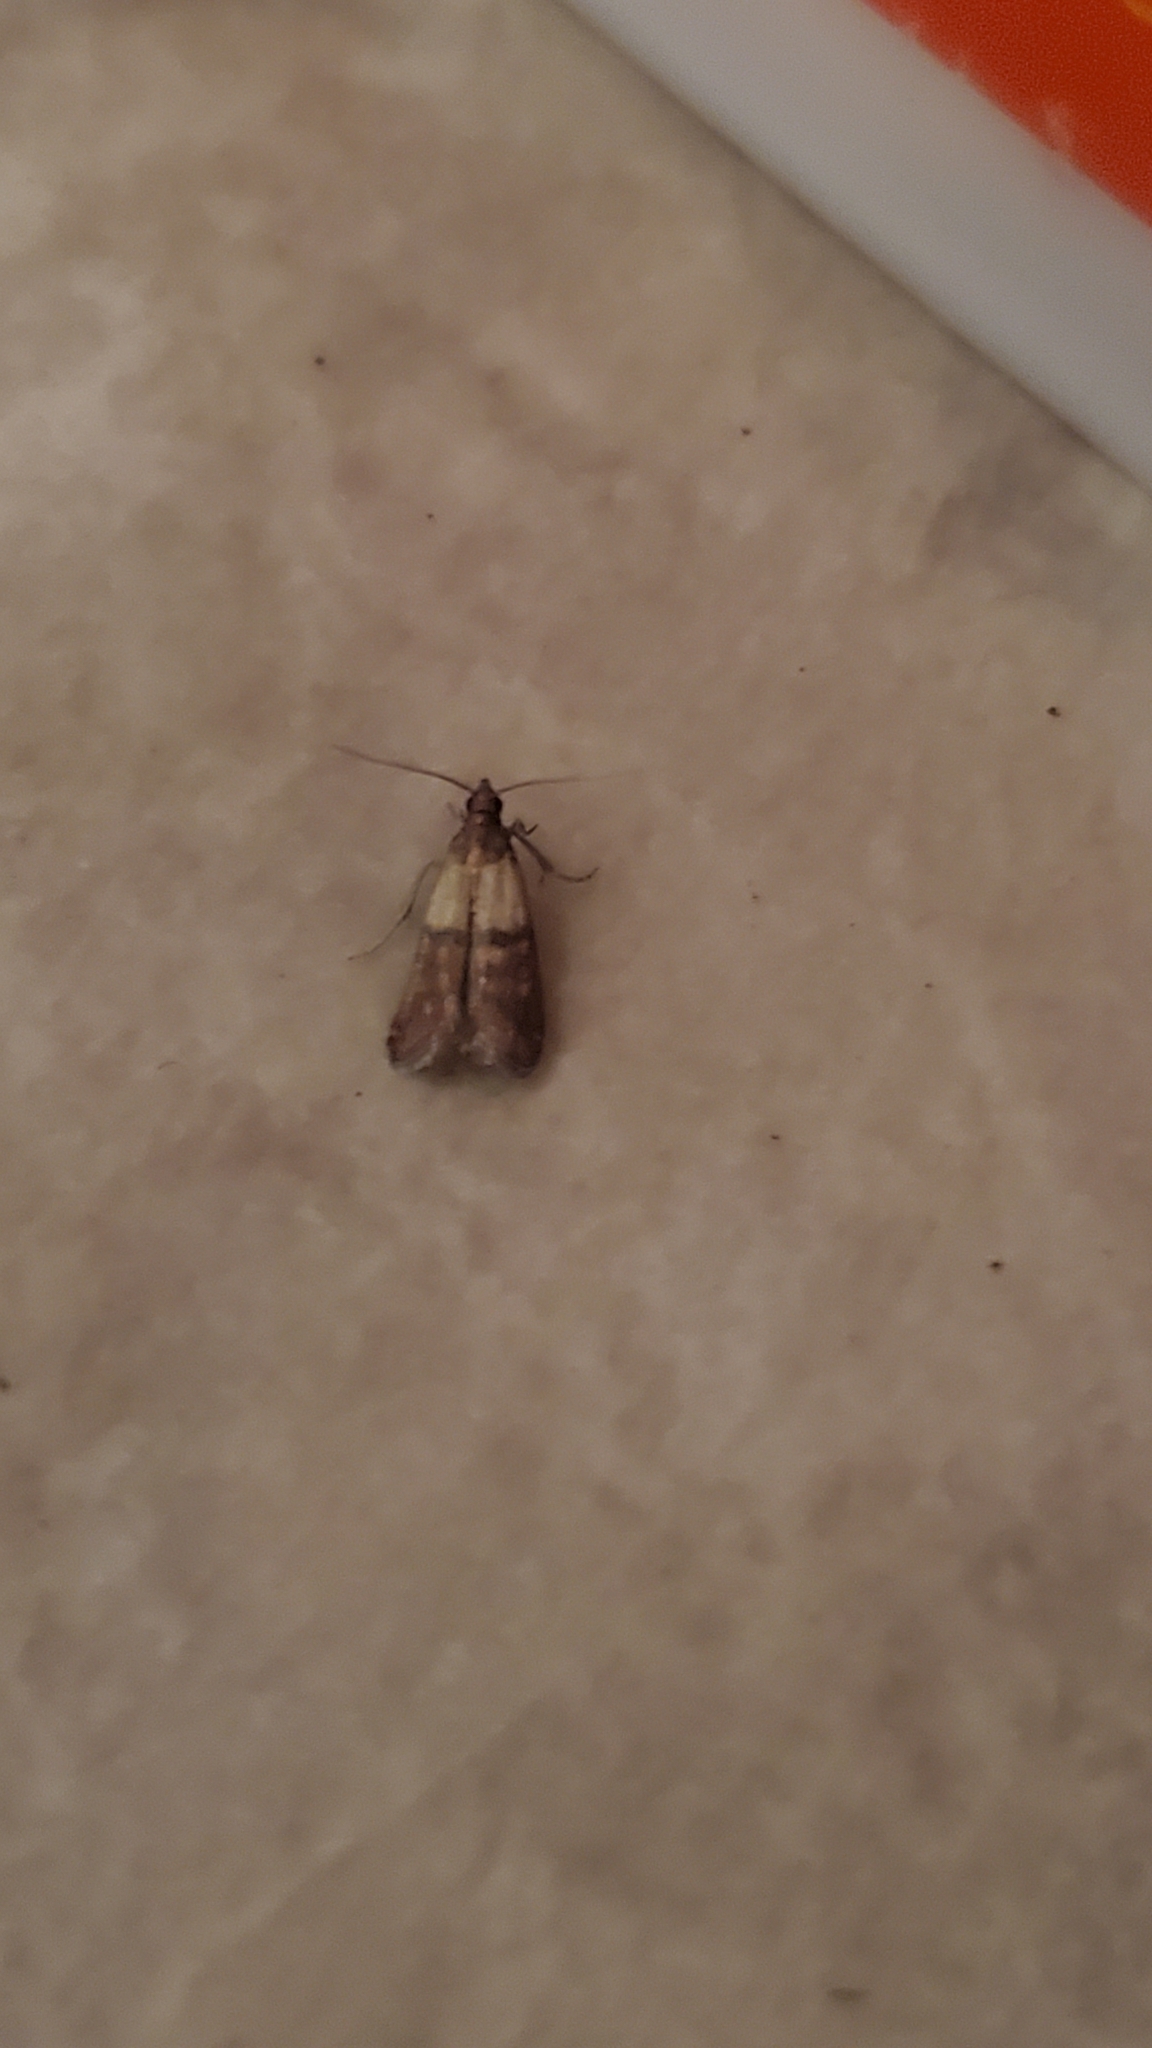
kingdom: Animalia
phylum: Arthropoda
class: Insecta
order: Lepidoptera
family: Pyralidae
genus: Plodia
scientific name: Plodia interpunctella
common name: Indian meal moth
